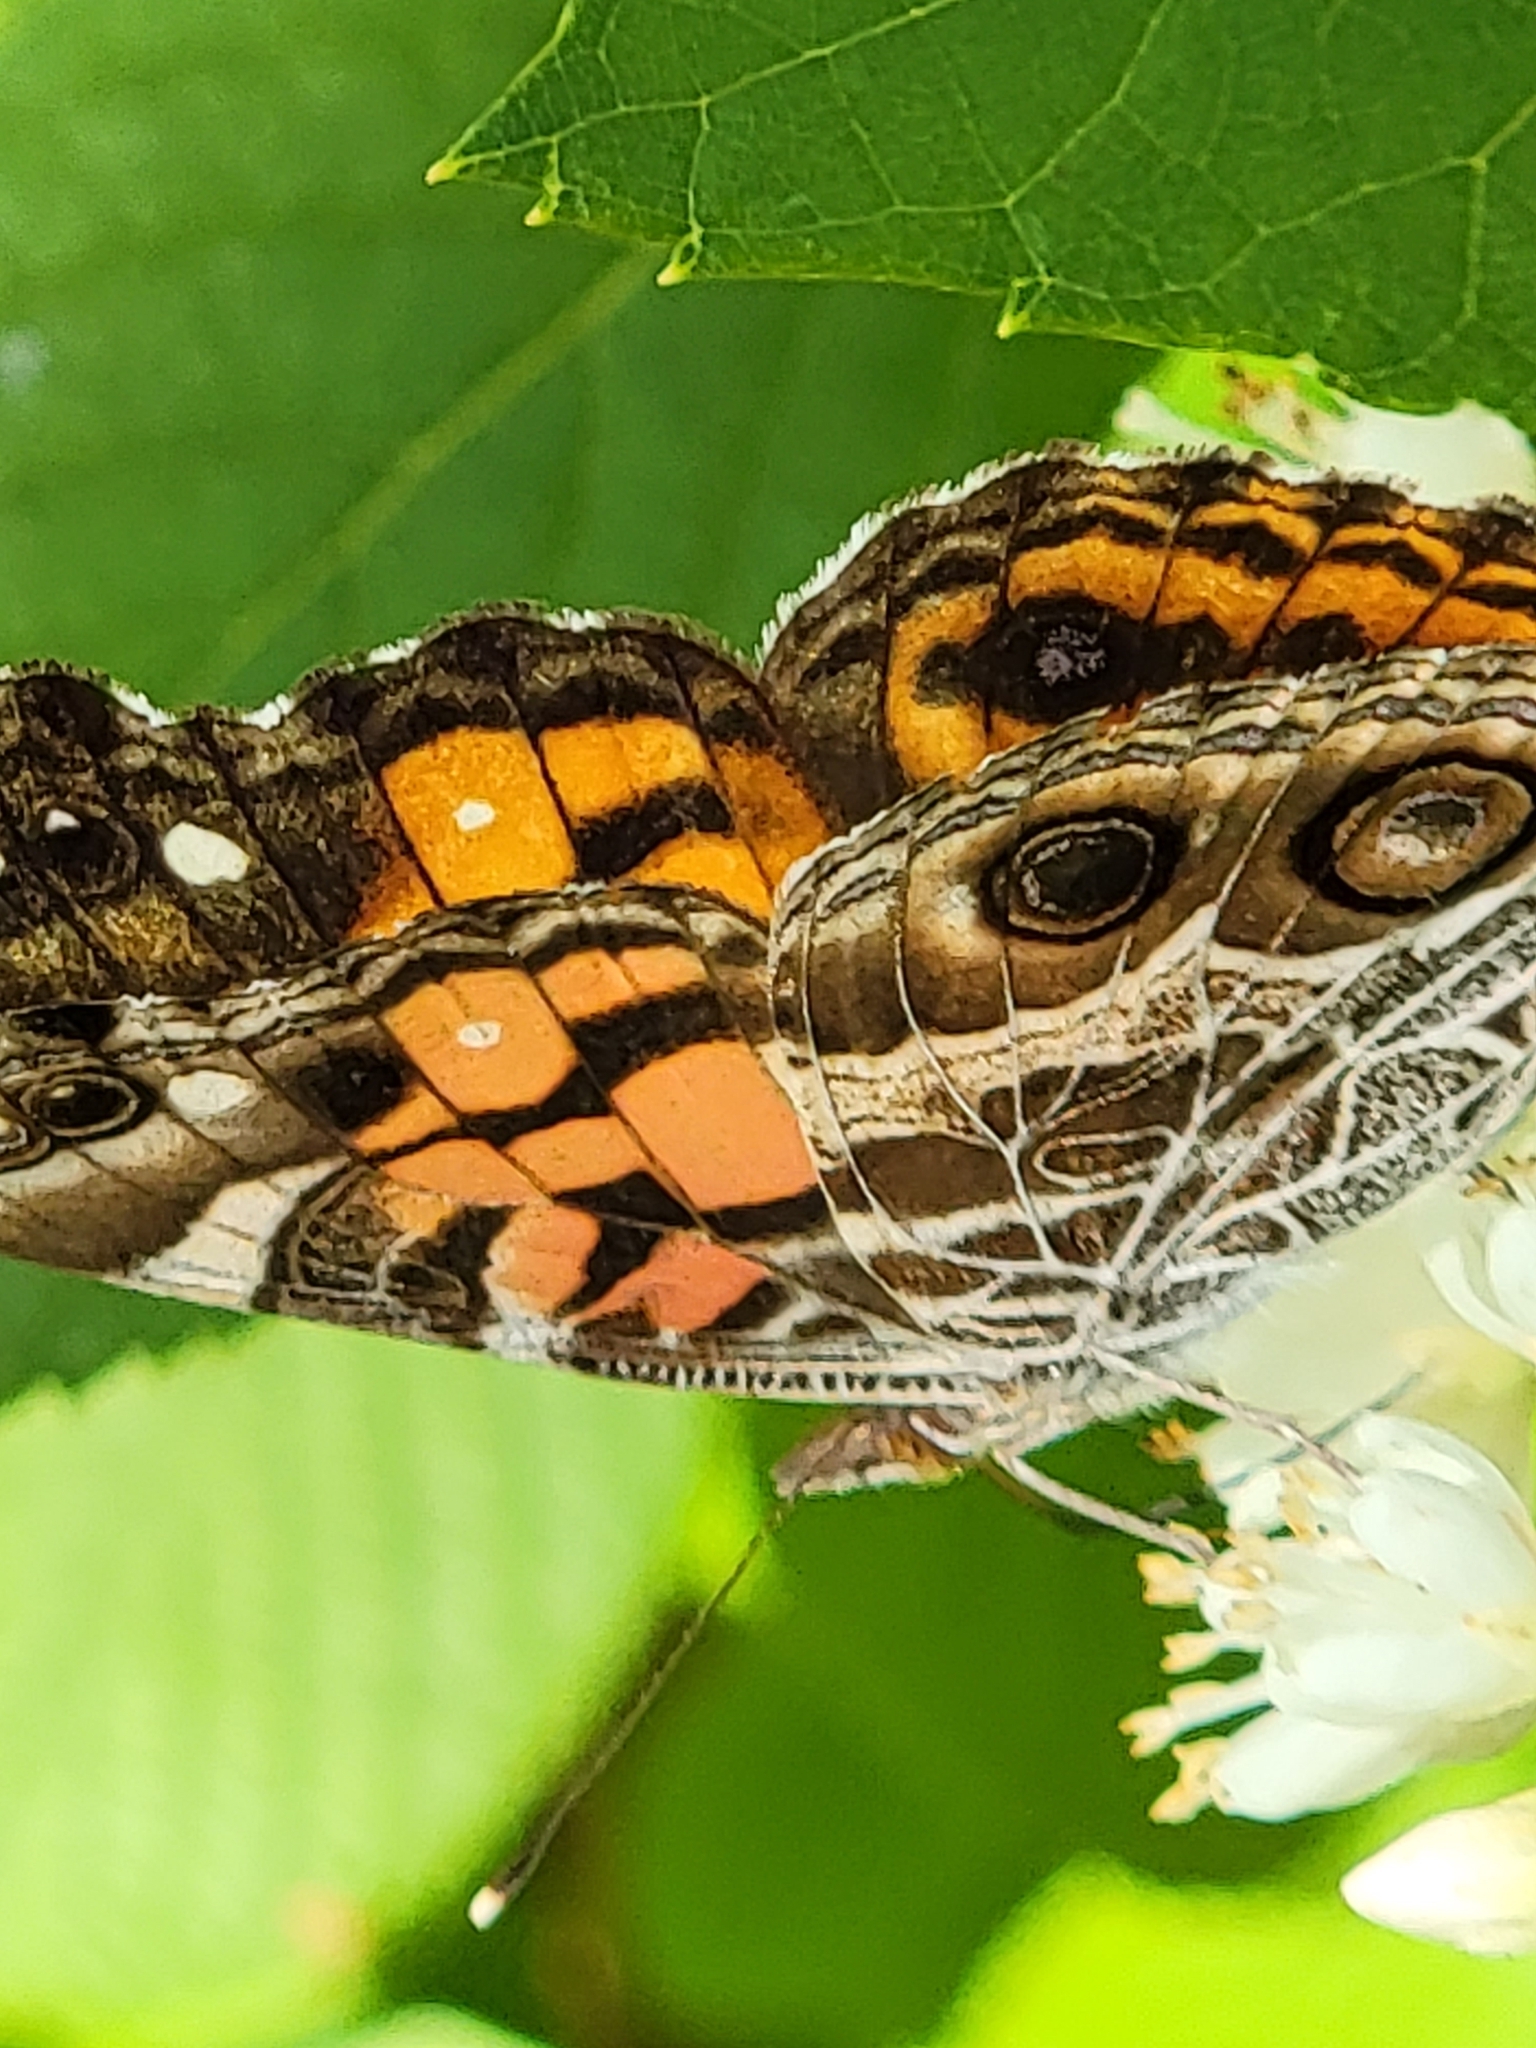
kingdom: Animalia
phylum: Arthropoda
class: Insecta
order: Lepidoptera
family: Nymphalidae
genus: Vanessa
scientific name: Vanessa virginiensis
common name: American lady
